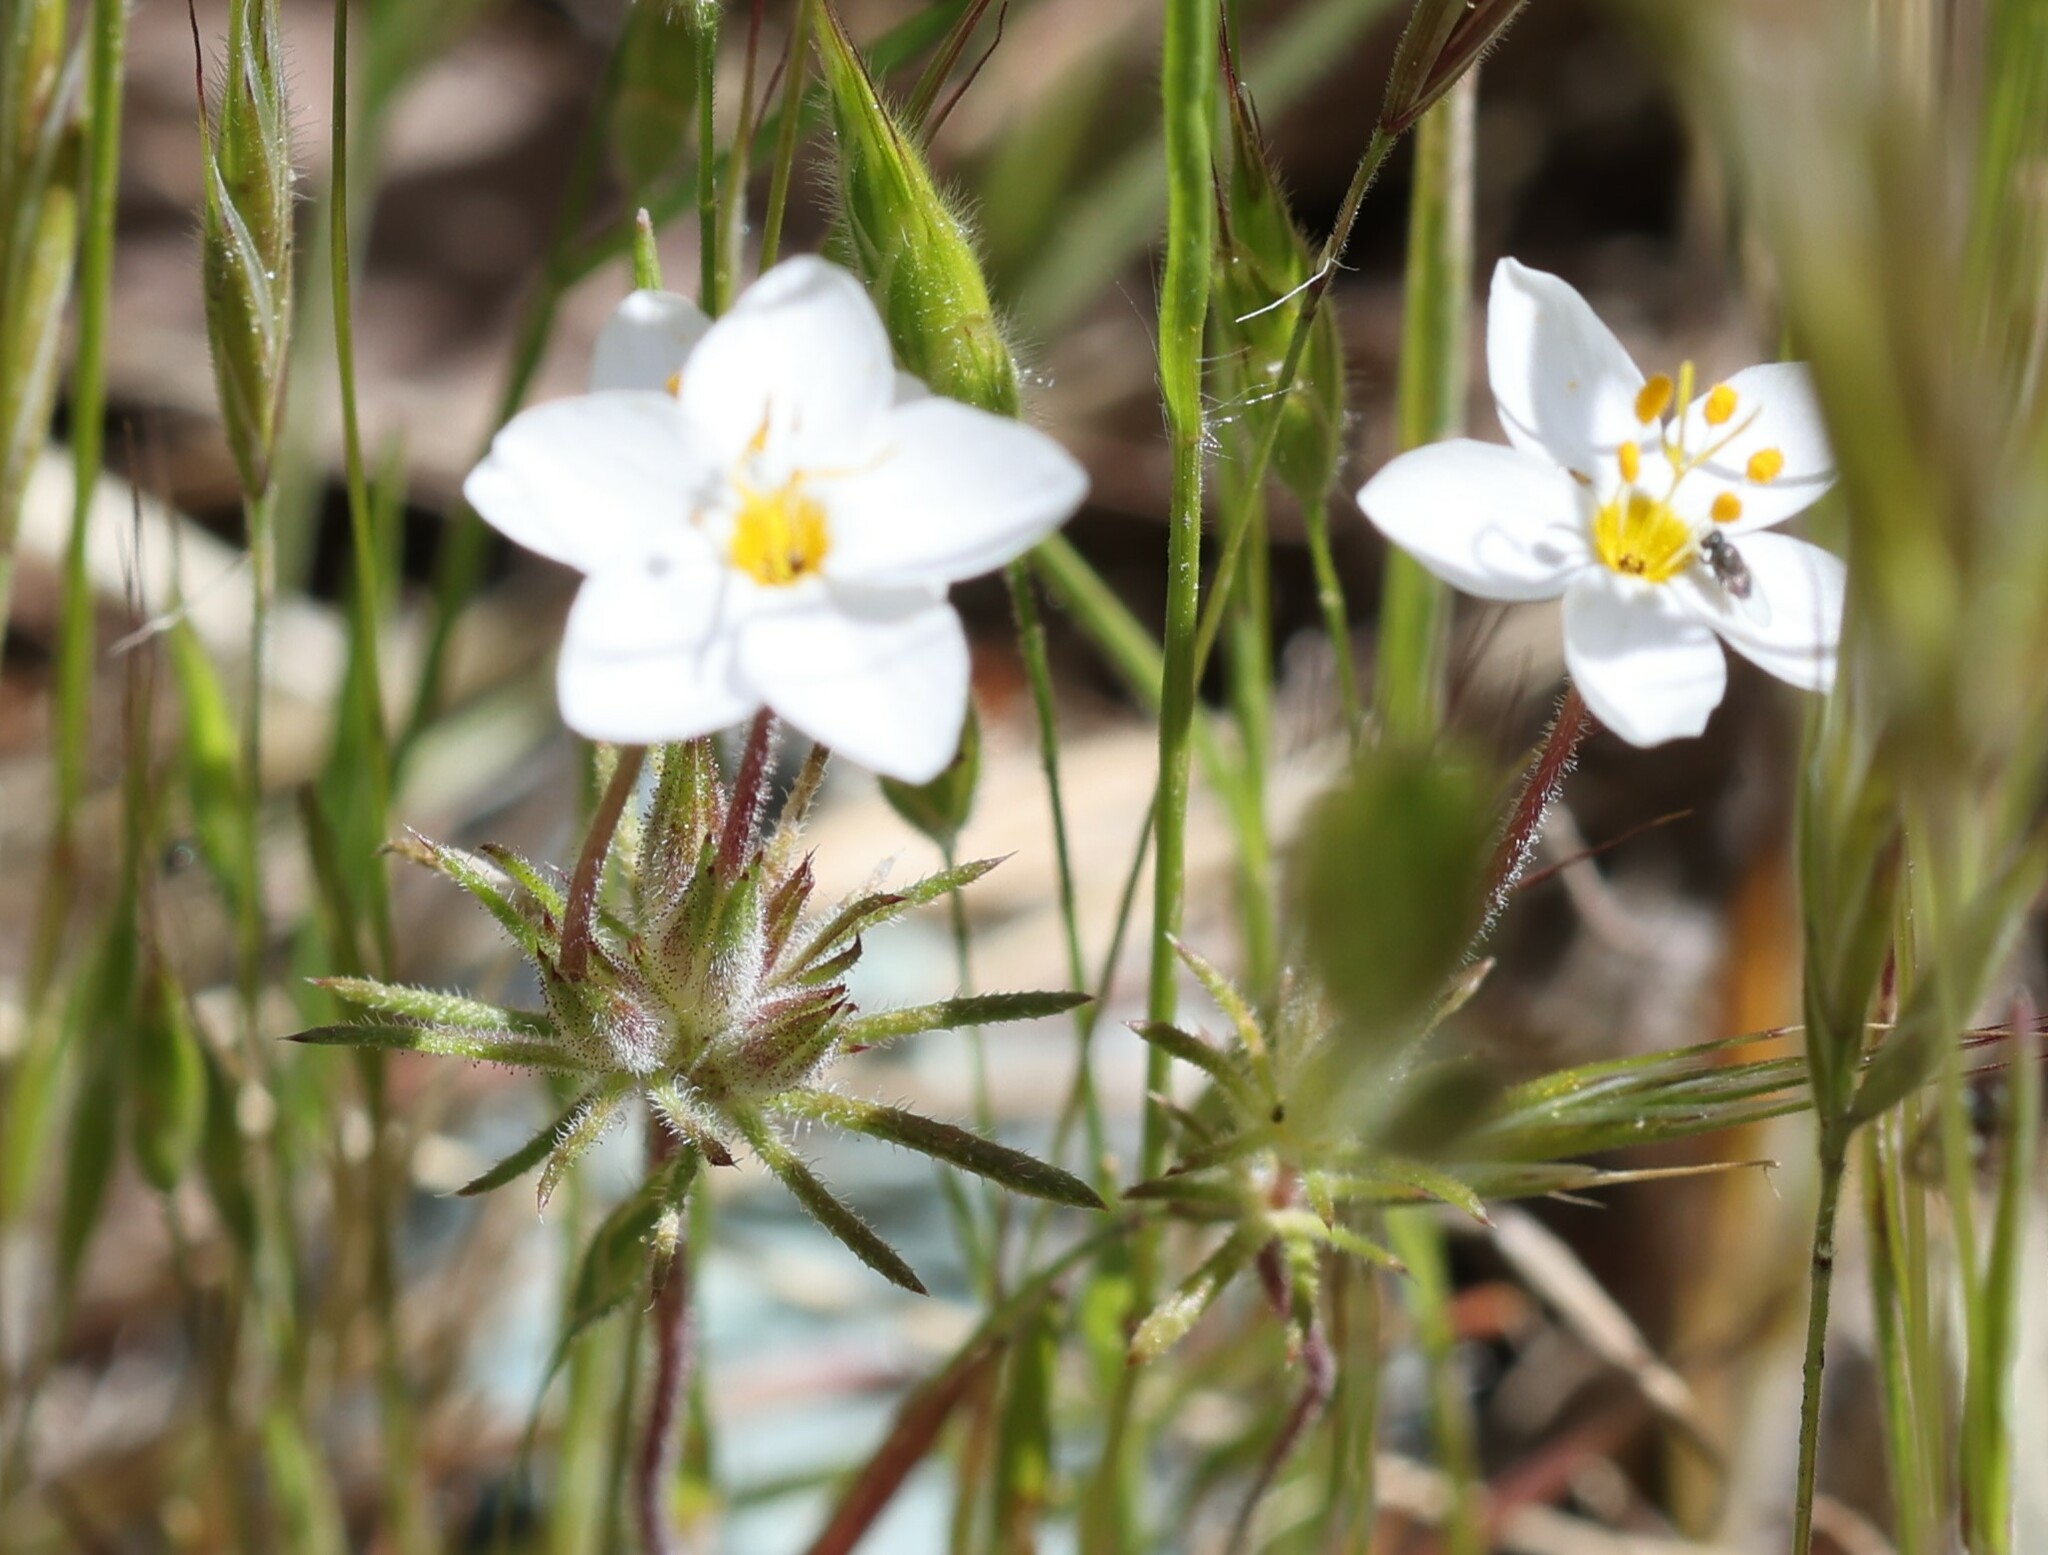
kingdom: Plantae
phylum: Tracheophyta
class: Magnoliopsida
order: Ericales
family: Polemoniaceae
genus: Leptosiphon
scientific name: Leptosiphon parviflorus
